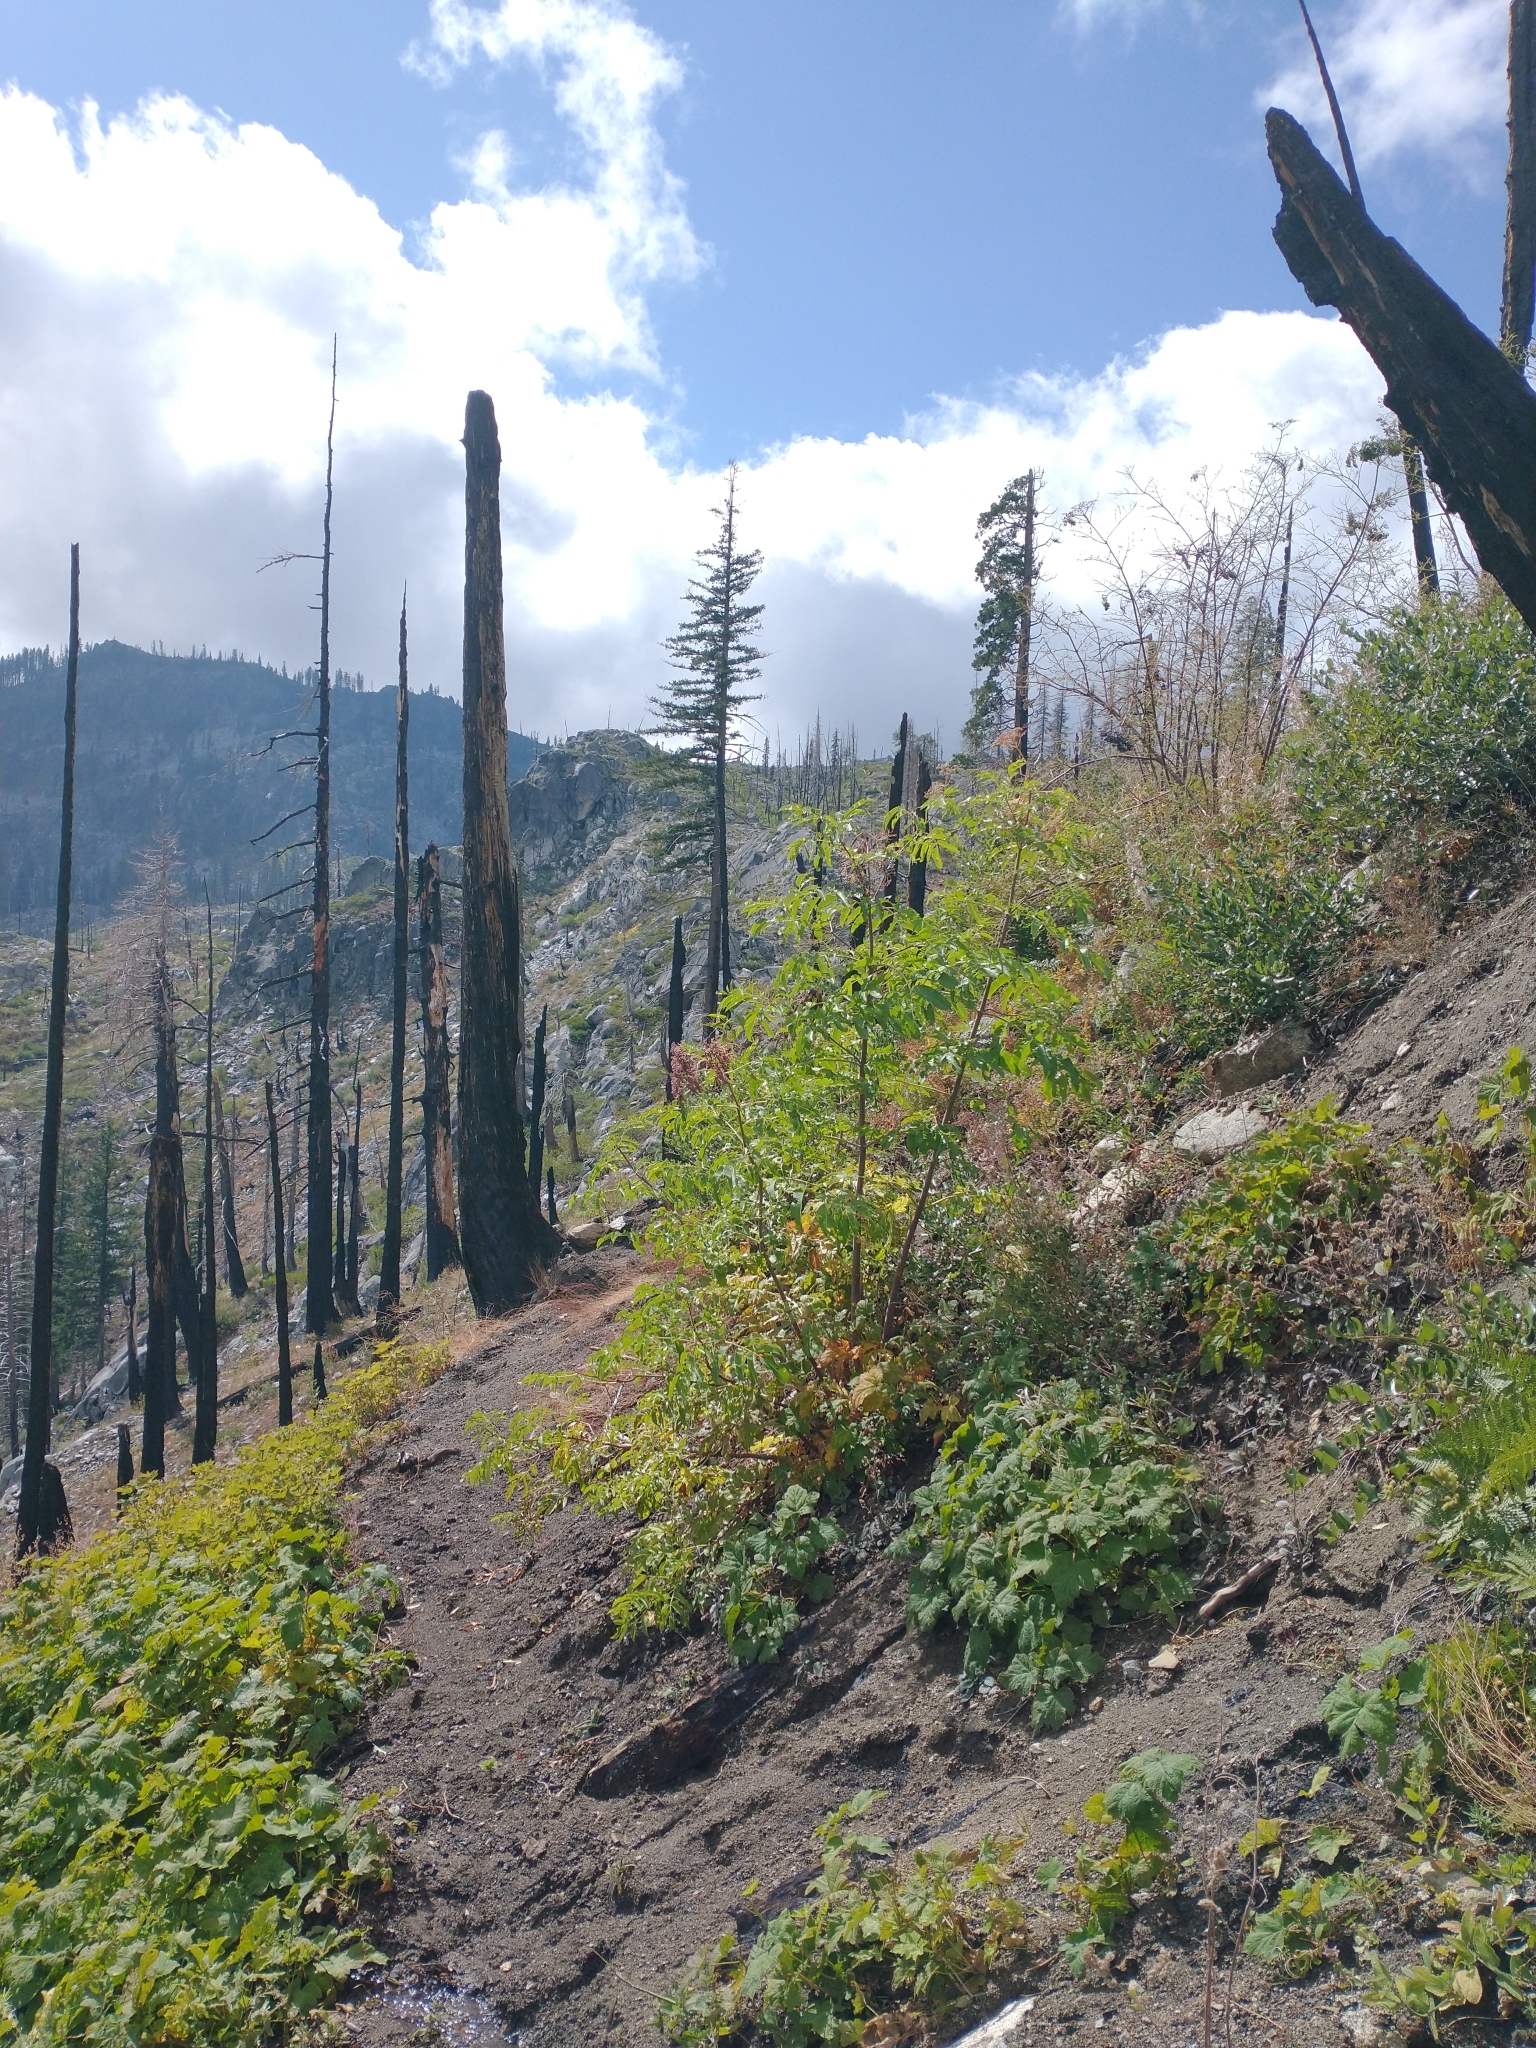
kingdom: Plantae
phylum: Tracheophyta
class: Magnoliopsida
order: Dipsacales
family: Viburnaceae
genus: Sambucus
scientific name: Sambucus cerulea
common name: Blue elder
